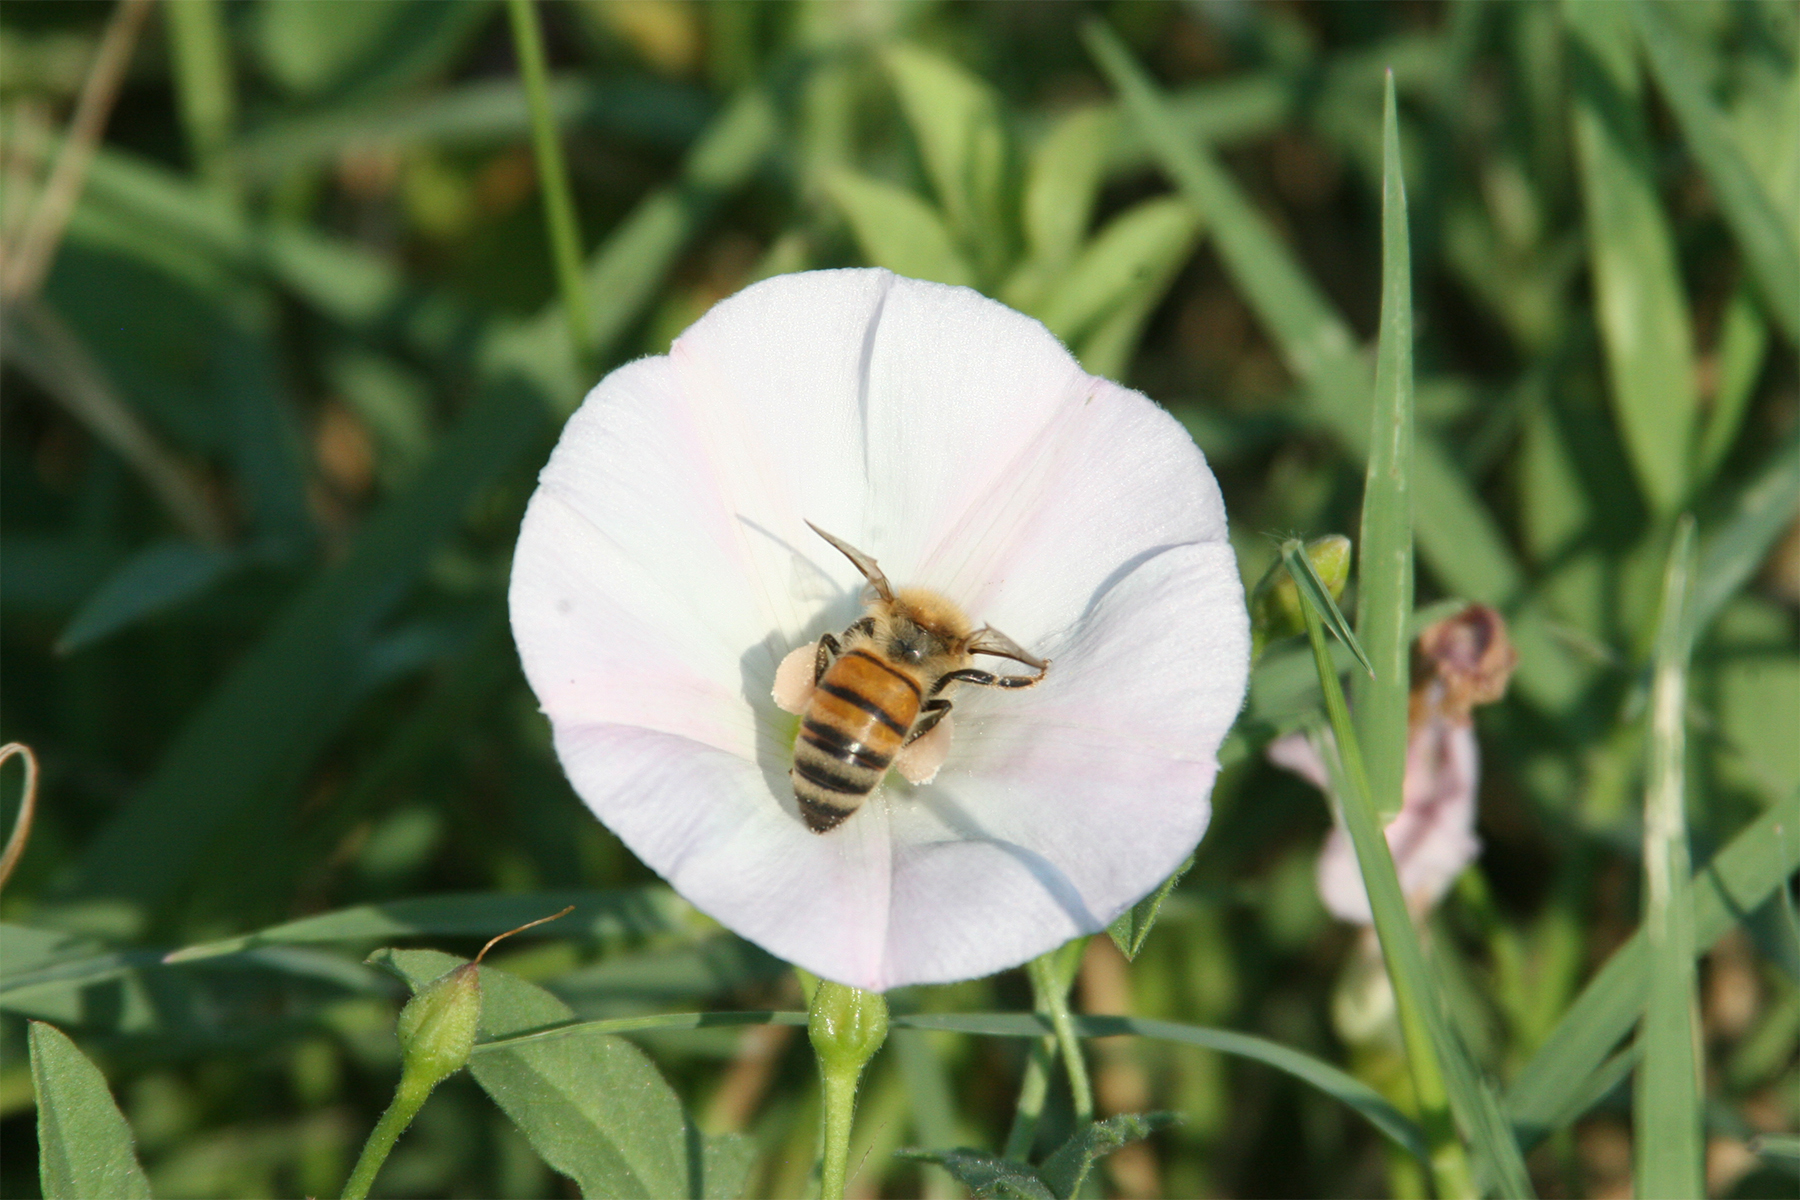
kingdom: Animalia
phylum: Arthropoda
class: Insecta
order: Hymenoptera
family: Apidae
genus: Apis
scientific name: Apis mellifera
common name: Honey bee
